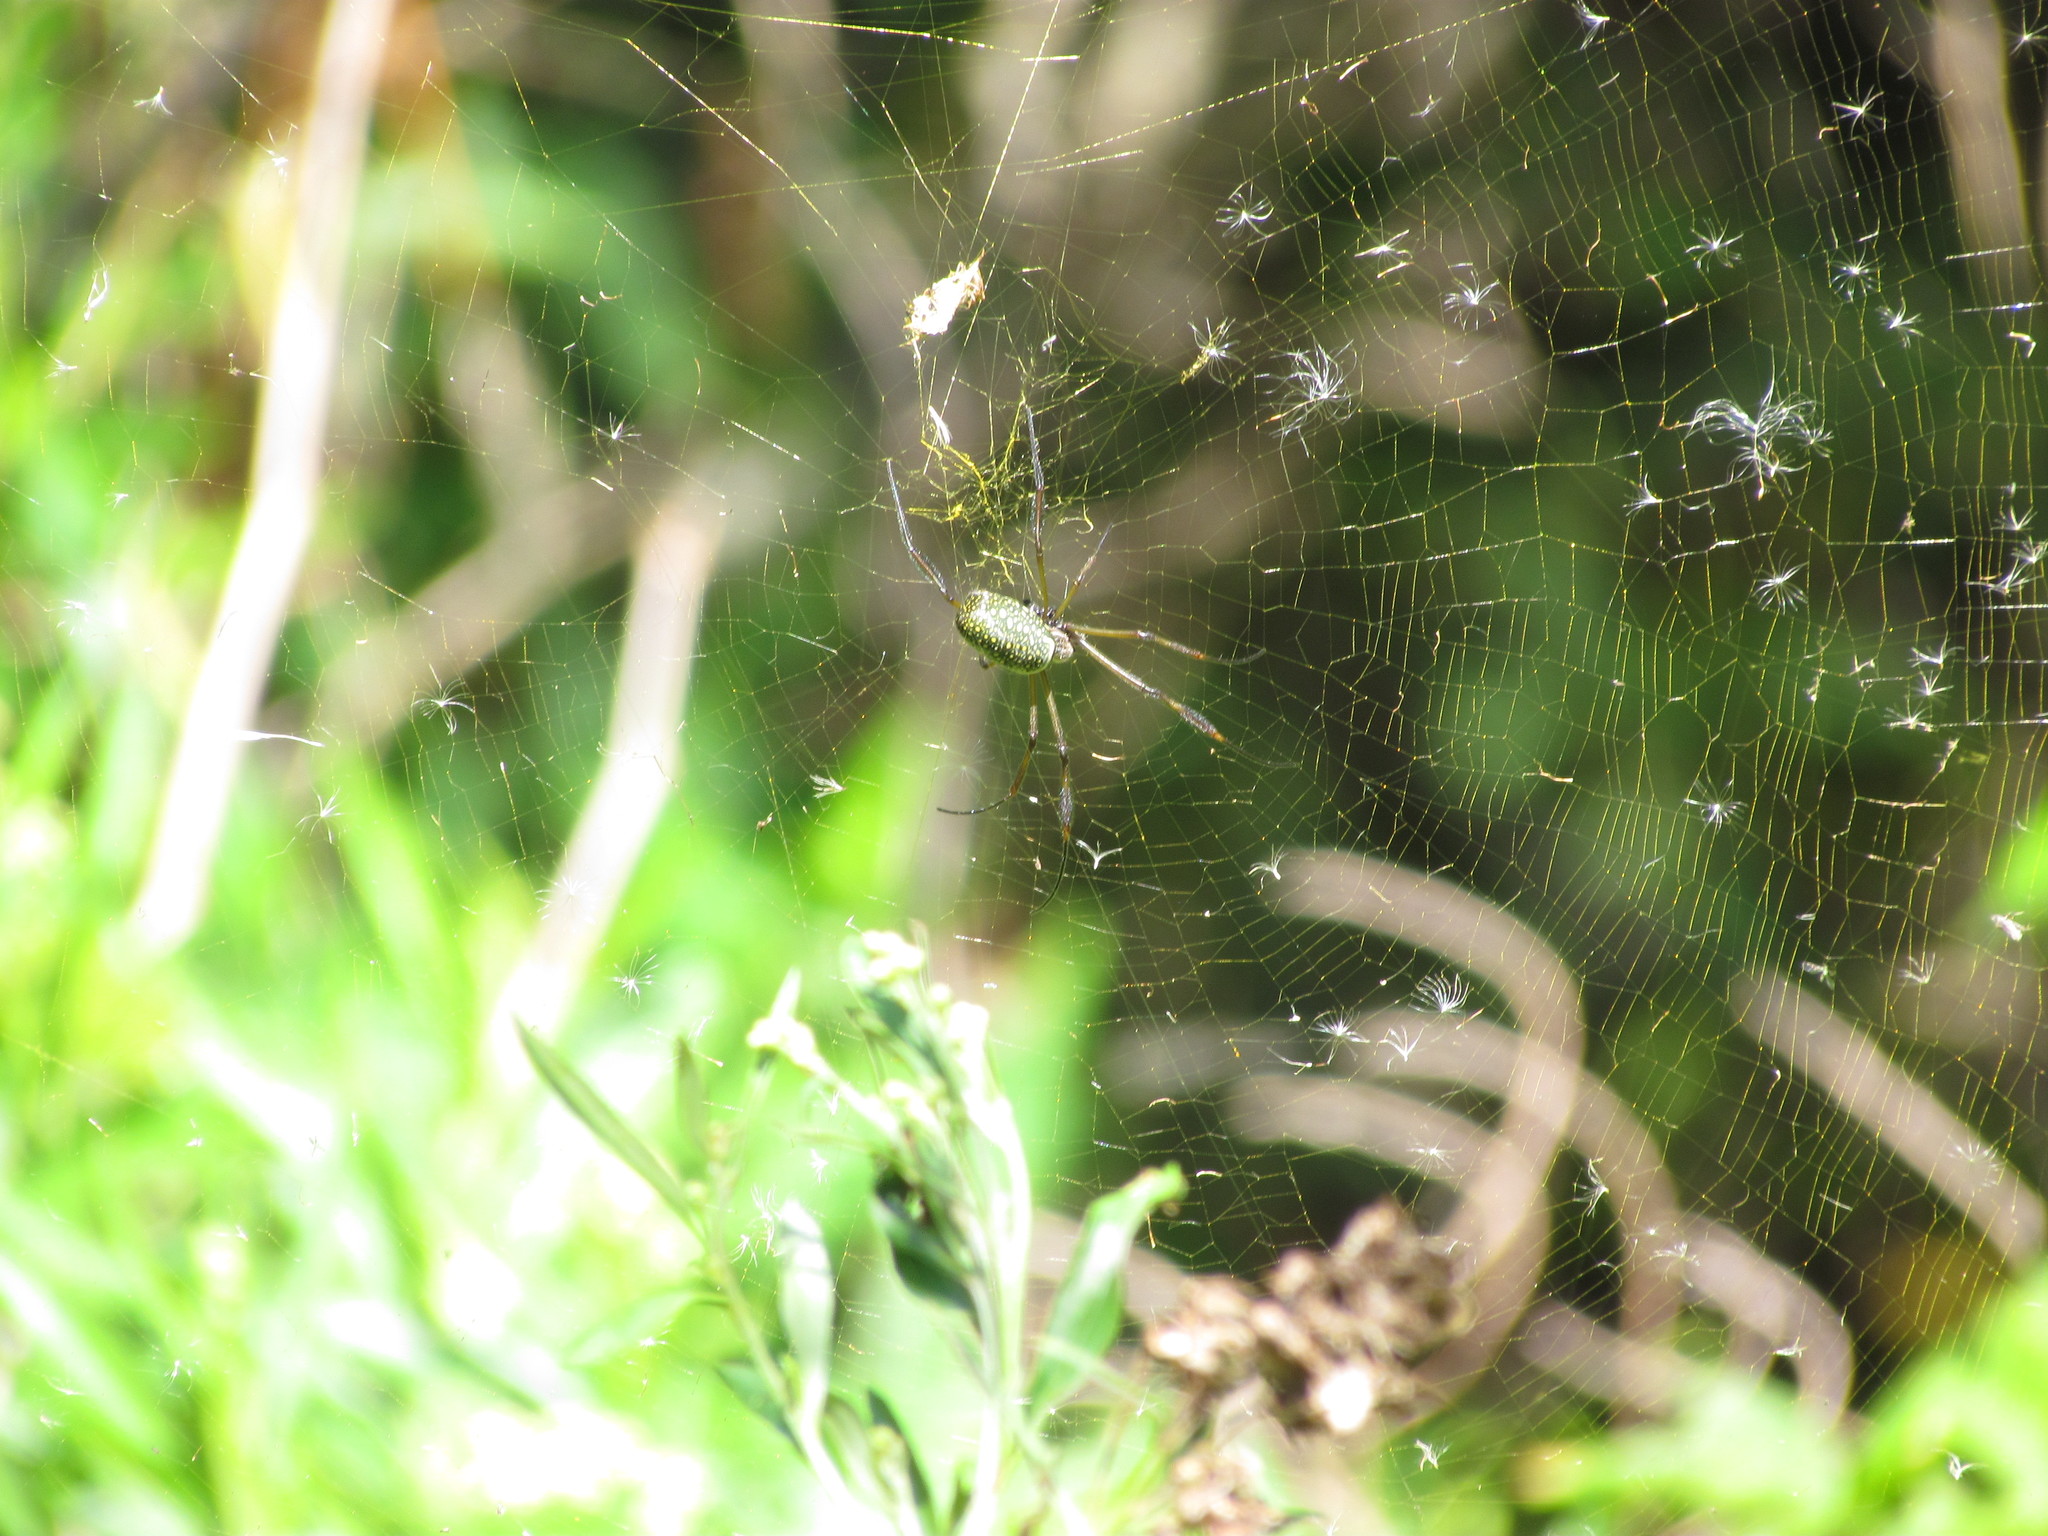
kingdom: Animalia
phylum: Arthropoda
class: Arachnida
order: Araneae
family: Araneidae
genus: Trichonephila
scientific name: Trichonephila clavipes
